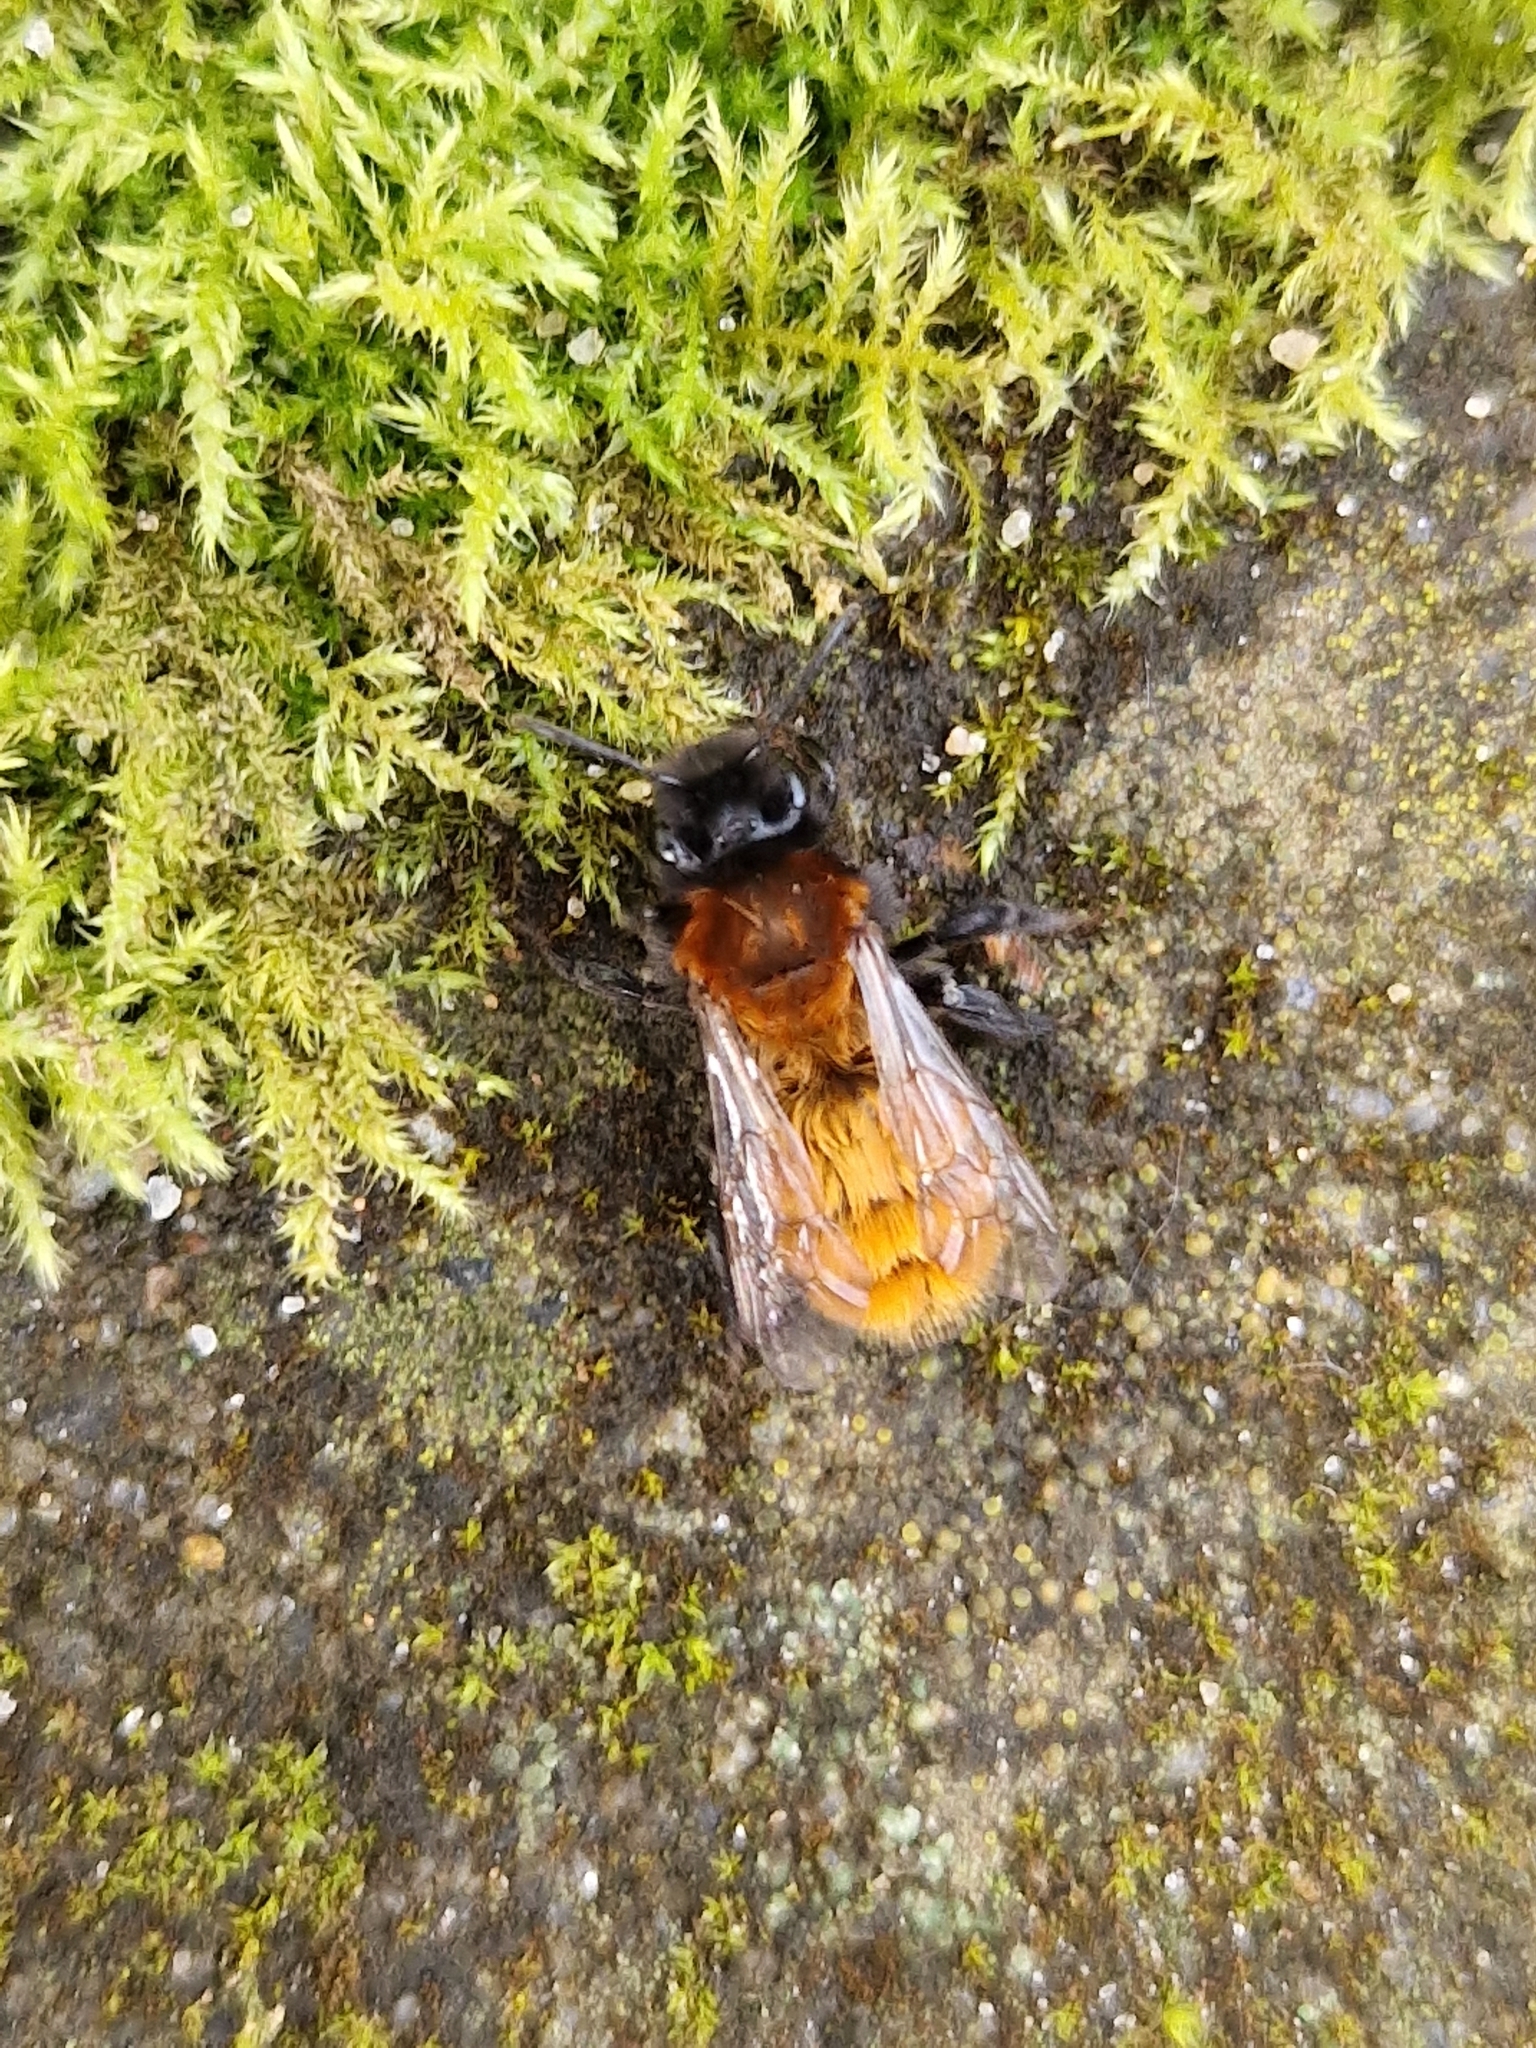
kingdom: Animalia
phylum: Arthropoda
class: Insecta
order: Hymenoptera
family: Andrenidae
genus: Andrena
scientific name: Andrena fulva
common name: Tawny mining bee
